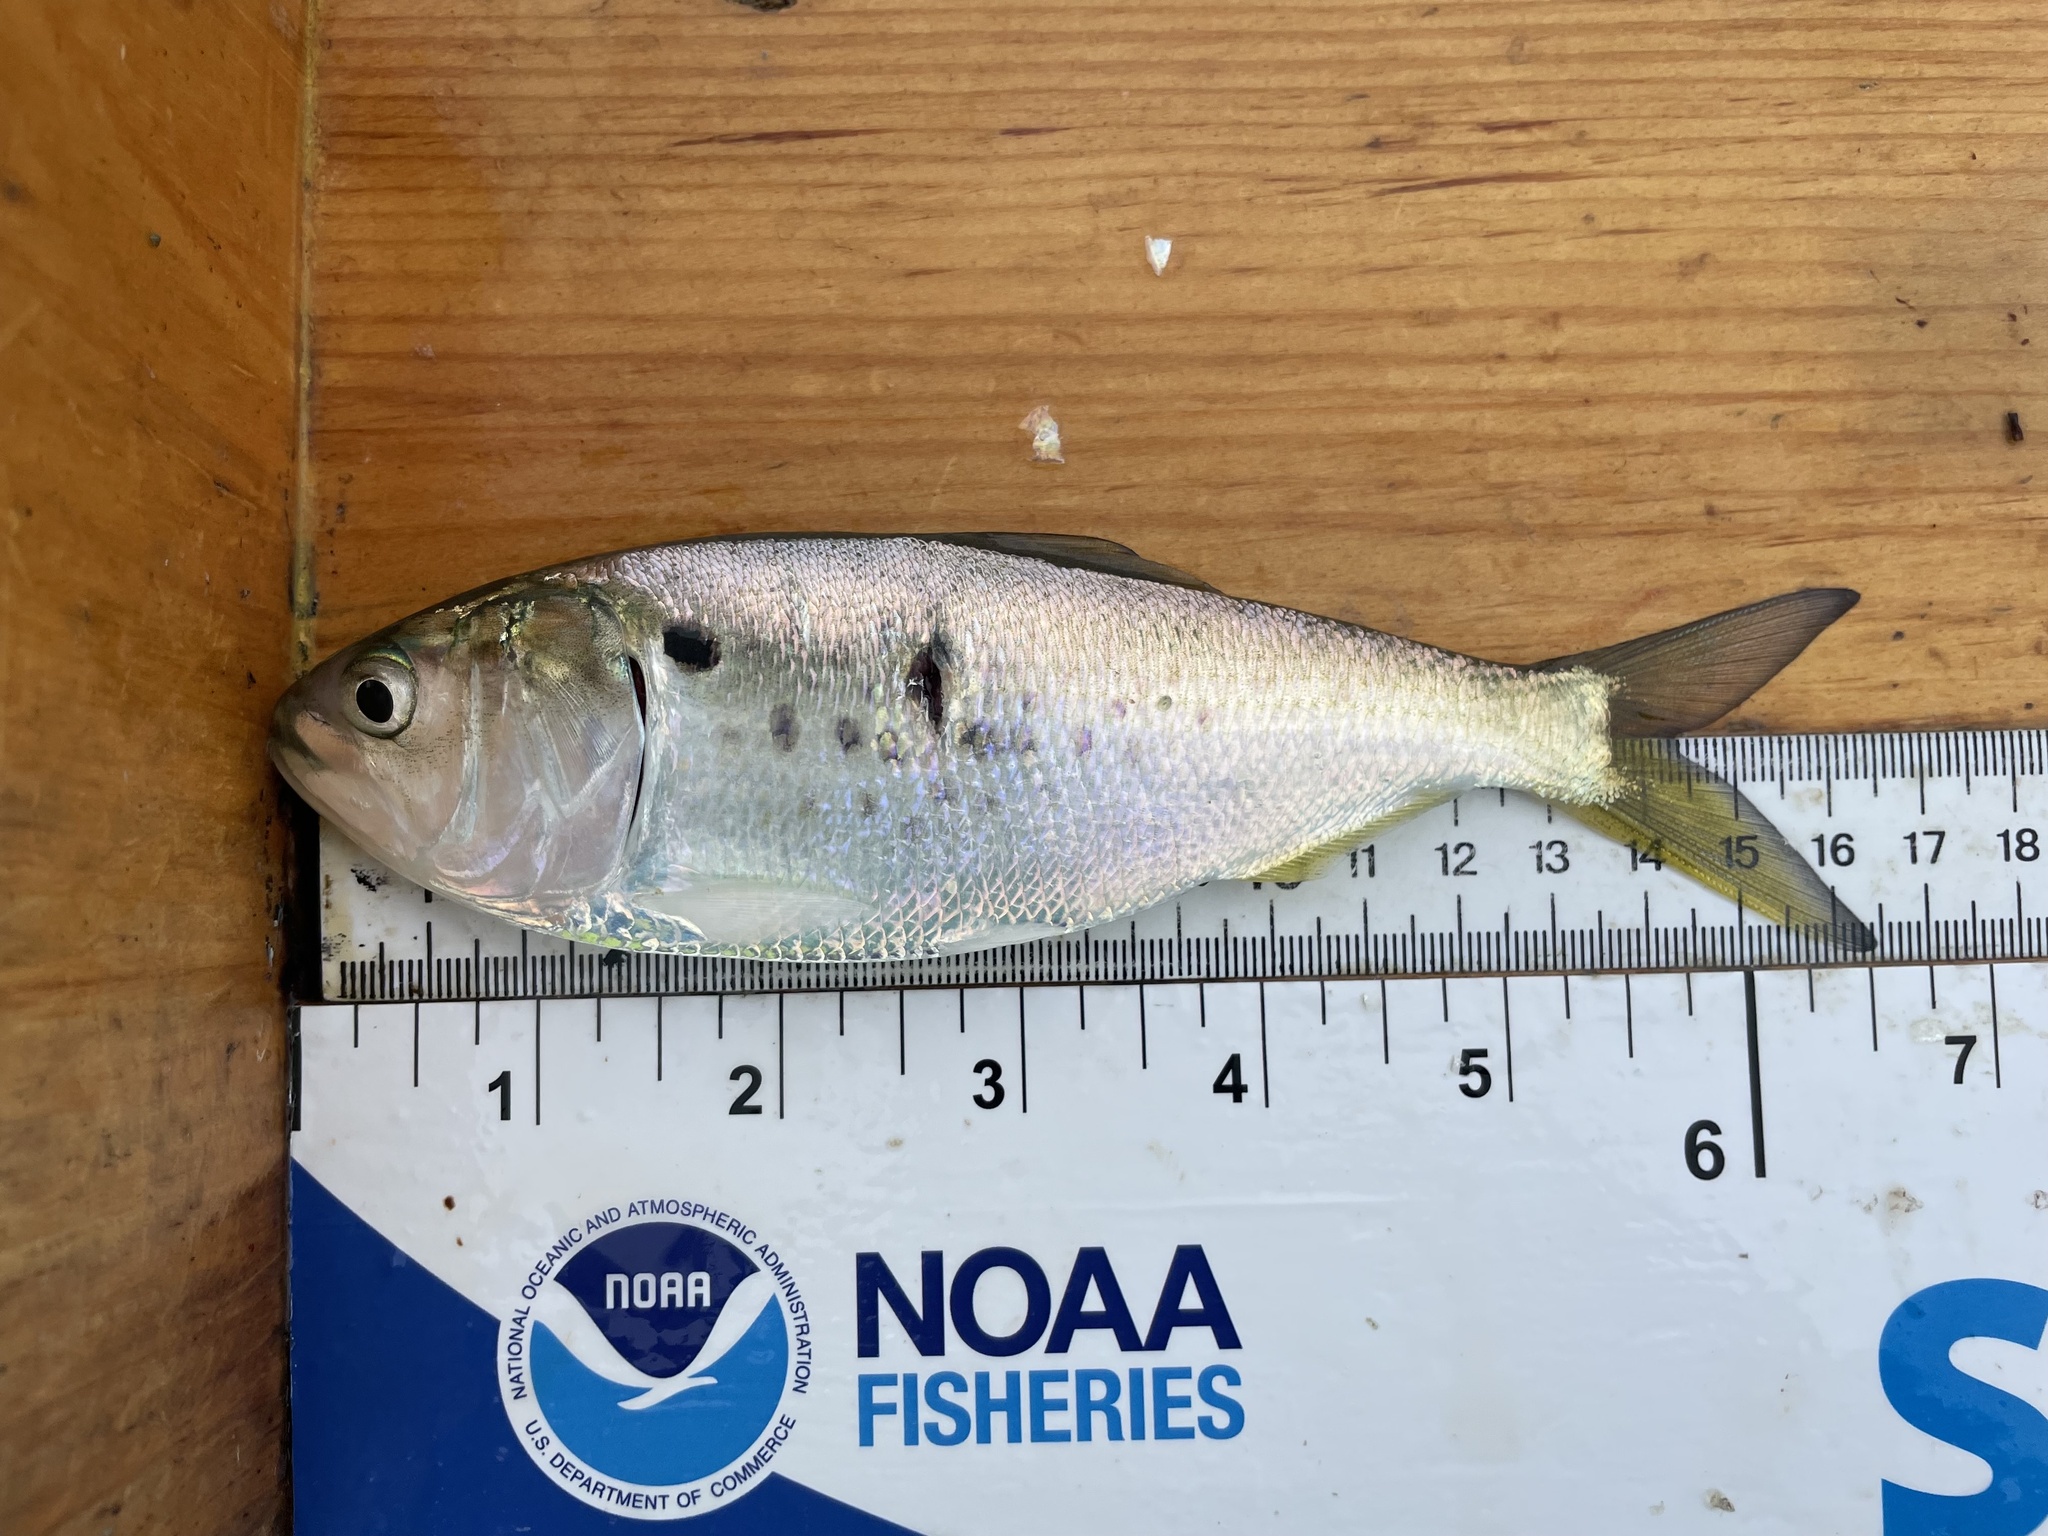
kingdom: Animalia
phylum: Chordata
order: Clupeiformes
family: Clupeidae
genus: Brevoortia
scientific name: Brevoortia tyrannus
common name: Atlantic menhaden
